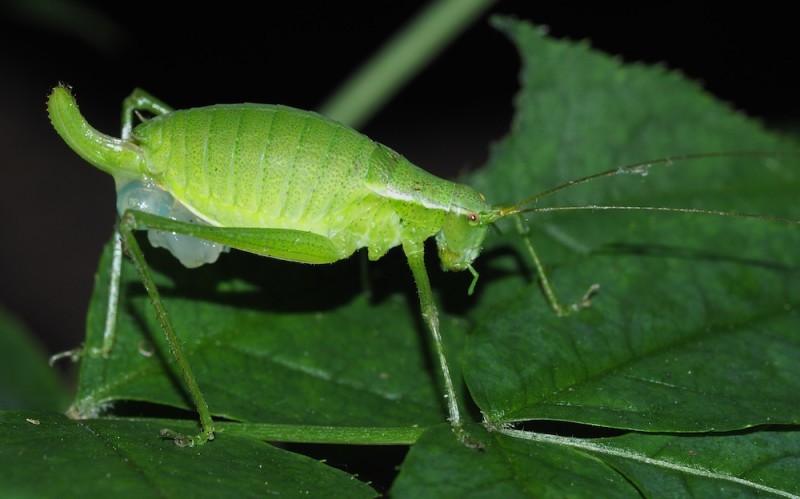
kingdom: Animalia
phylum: Arthropoda
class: Insecta
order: Orthoptera
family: Tettigoniidae
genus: Isophya
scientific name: Isophya pienensis
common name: Pieninsky' plump bush-cricket
